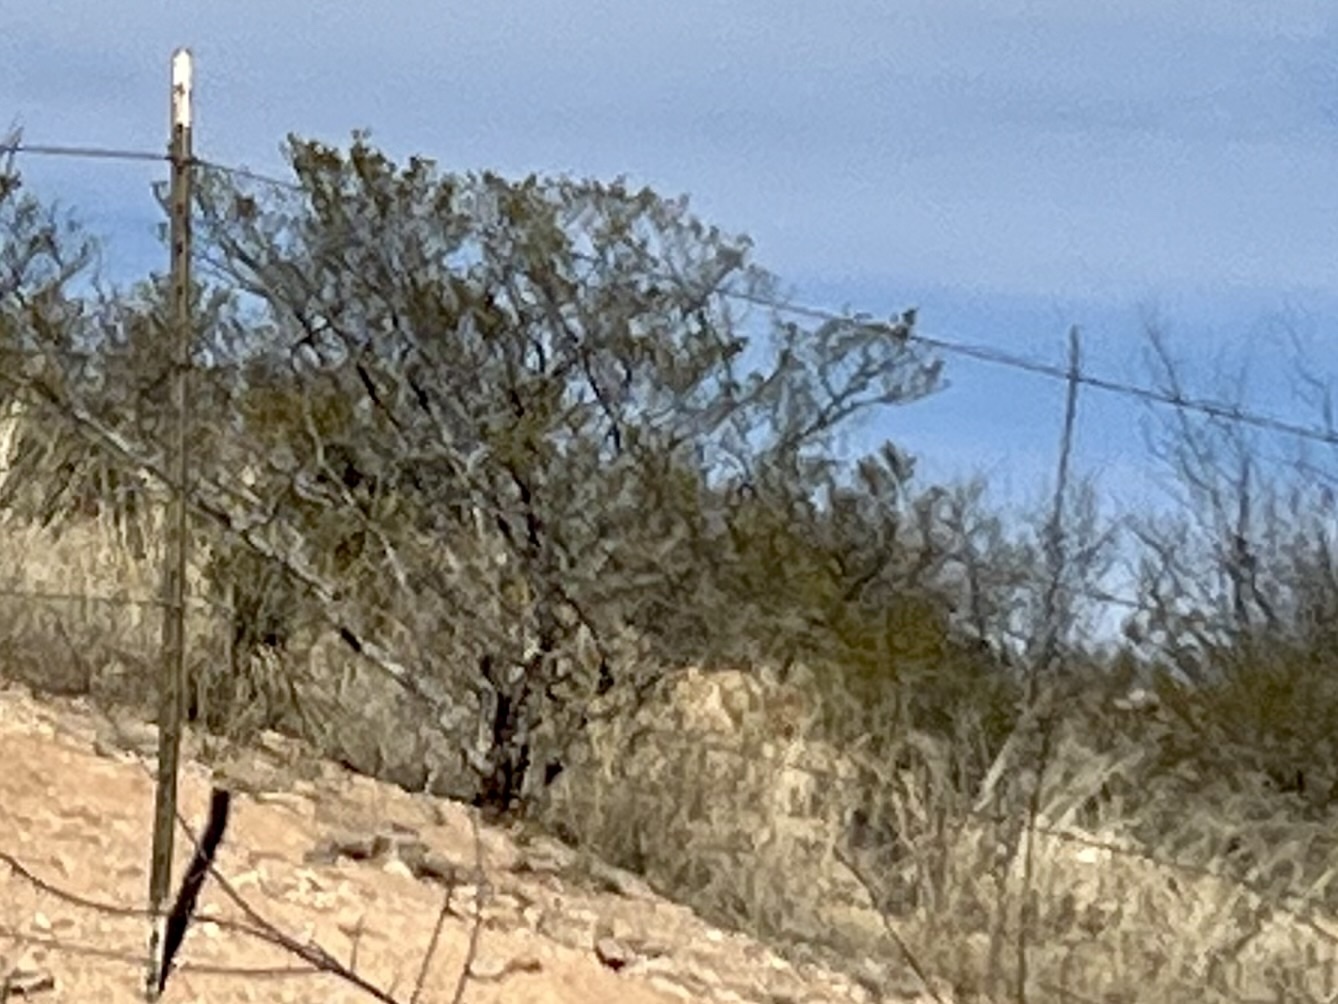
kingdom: Plantae
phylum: Tracheophyta
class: Magnoliopsida
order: Zygophyllales
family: Zygophyllaceae
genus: Larrea
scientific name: Larrea tridentata
